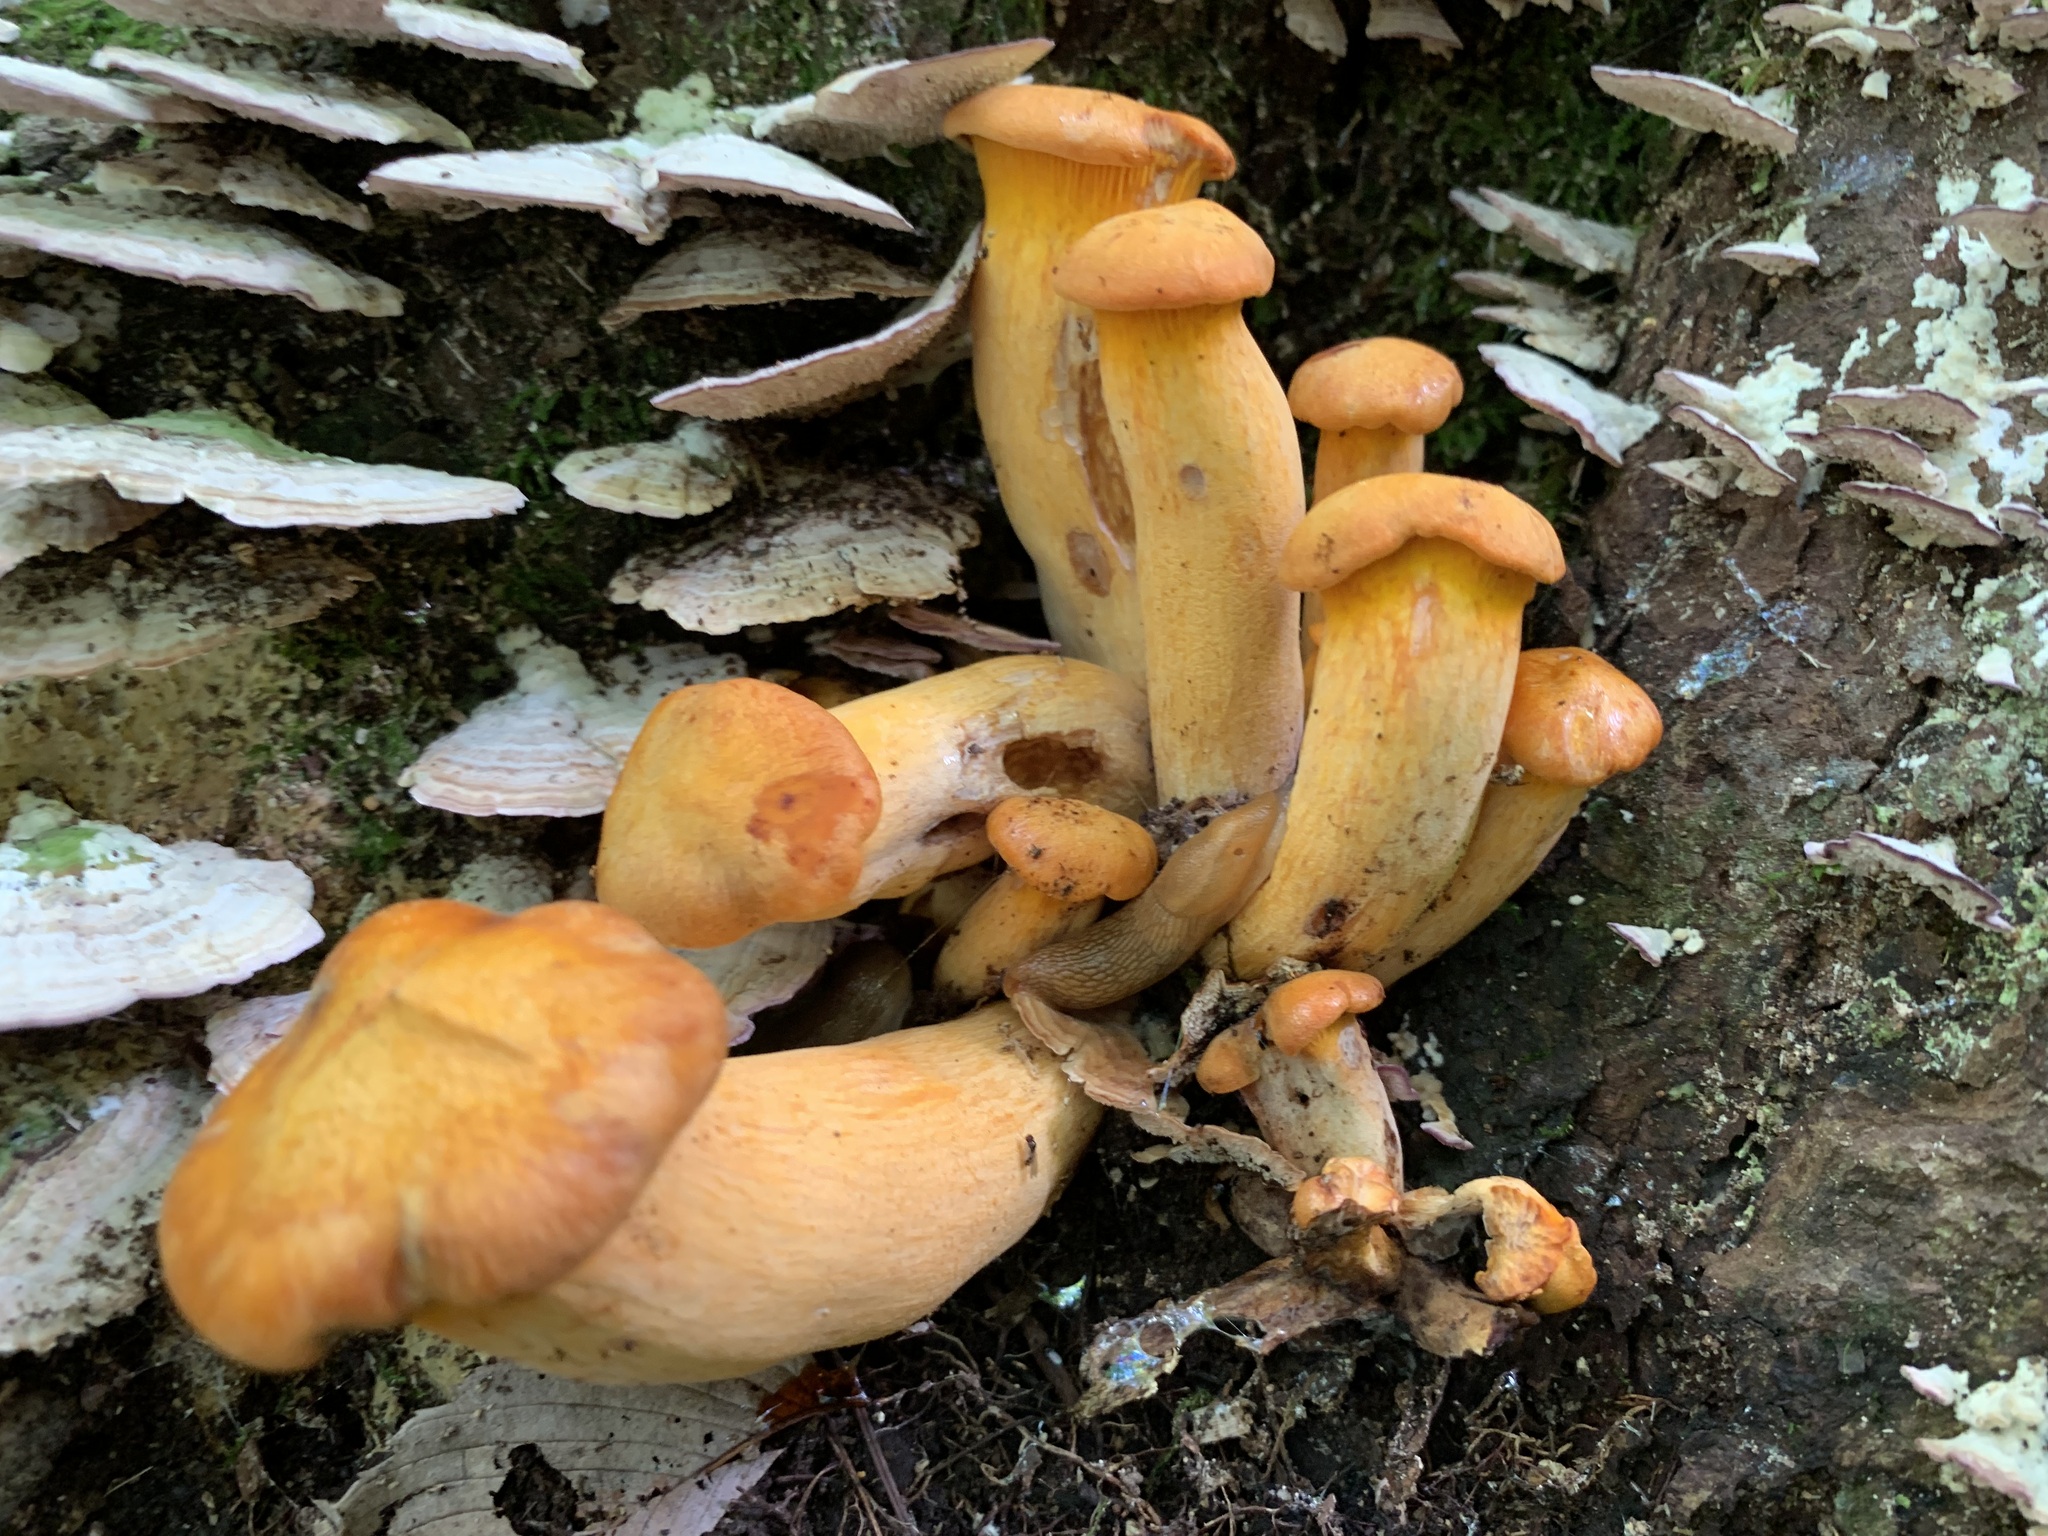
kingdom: Fungi
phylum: Basidiomycota
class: Agaricomycetes
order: Agaricales
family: Omphalotaceae
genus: Omphalotus
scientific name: Omphalotus illudens
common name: Jack o lantern
